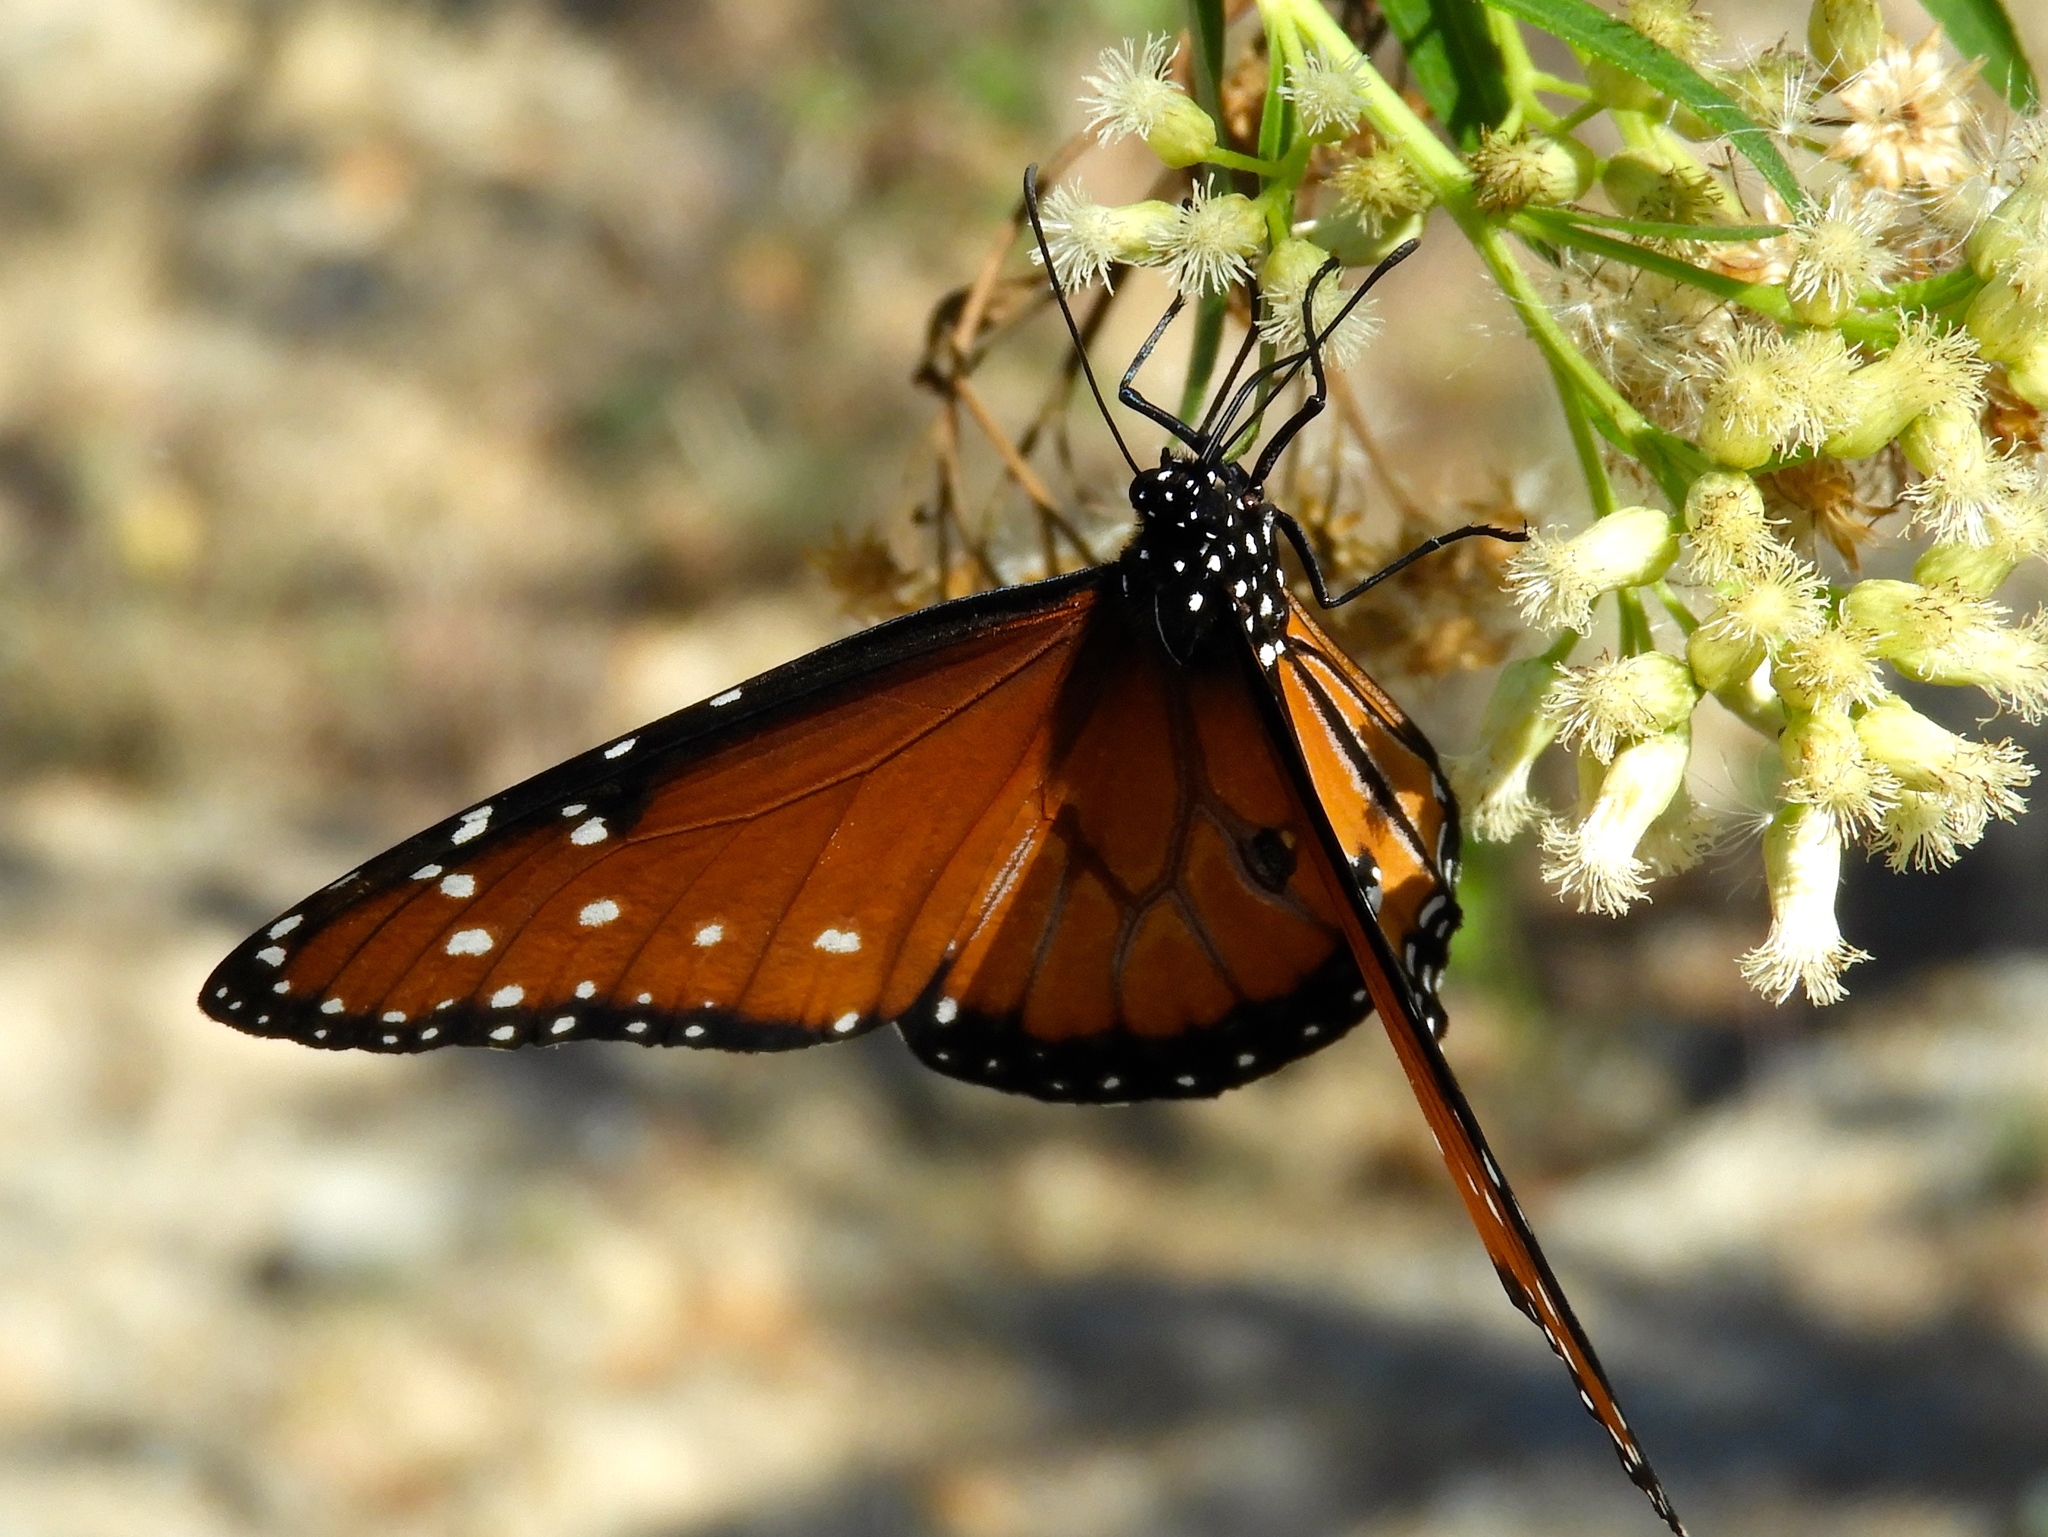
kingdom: Animalia
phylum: Arthropoda
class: Insecta
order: Lepidoptera
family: Nymphalidae
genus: Danaus
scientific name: Danaus gilippus
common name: Queen
